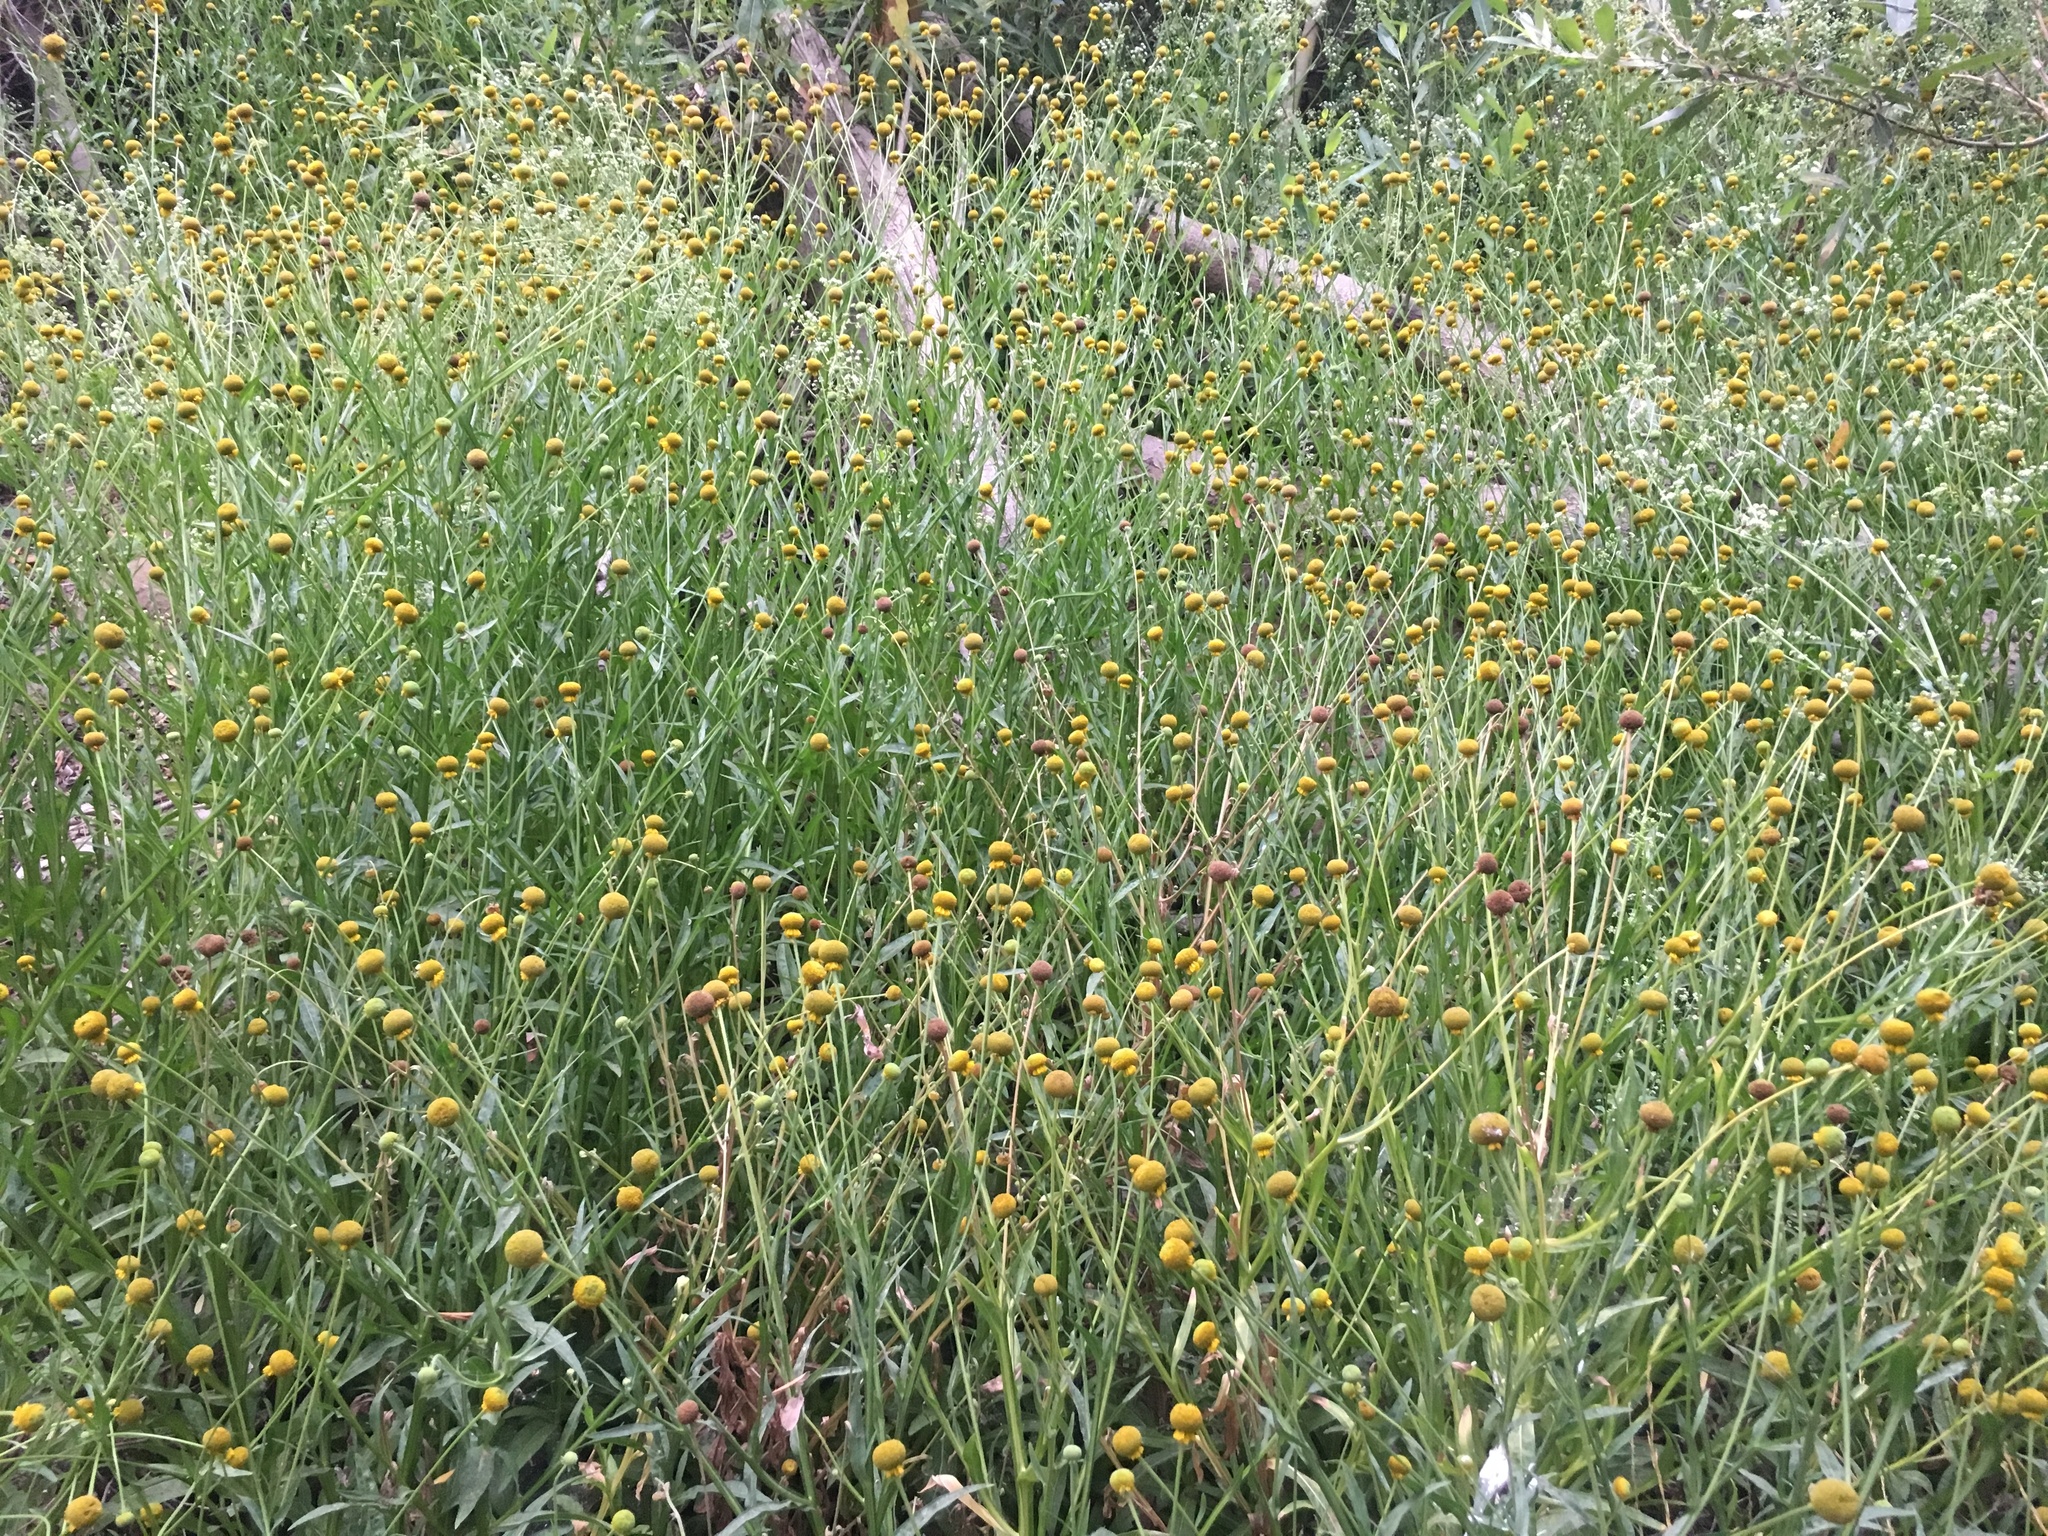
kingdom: Plantae
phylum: Tracheophyta
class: Magnoliopsida
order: Asterales
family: Asteraceae
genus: Helenium
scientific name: Helenium puberulum
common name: Sneezewort
